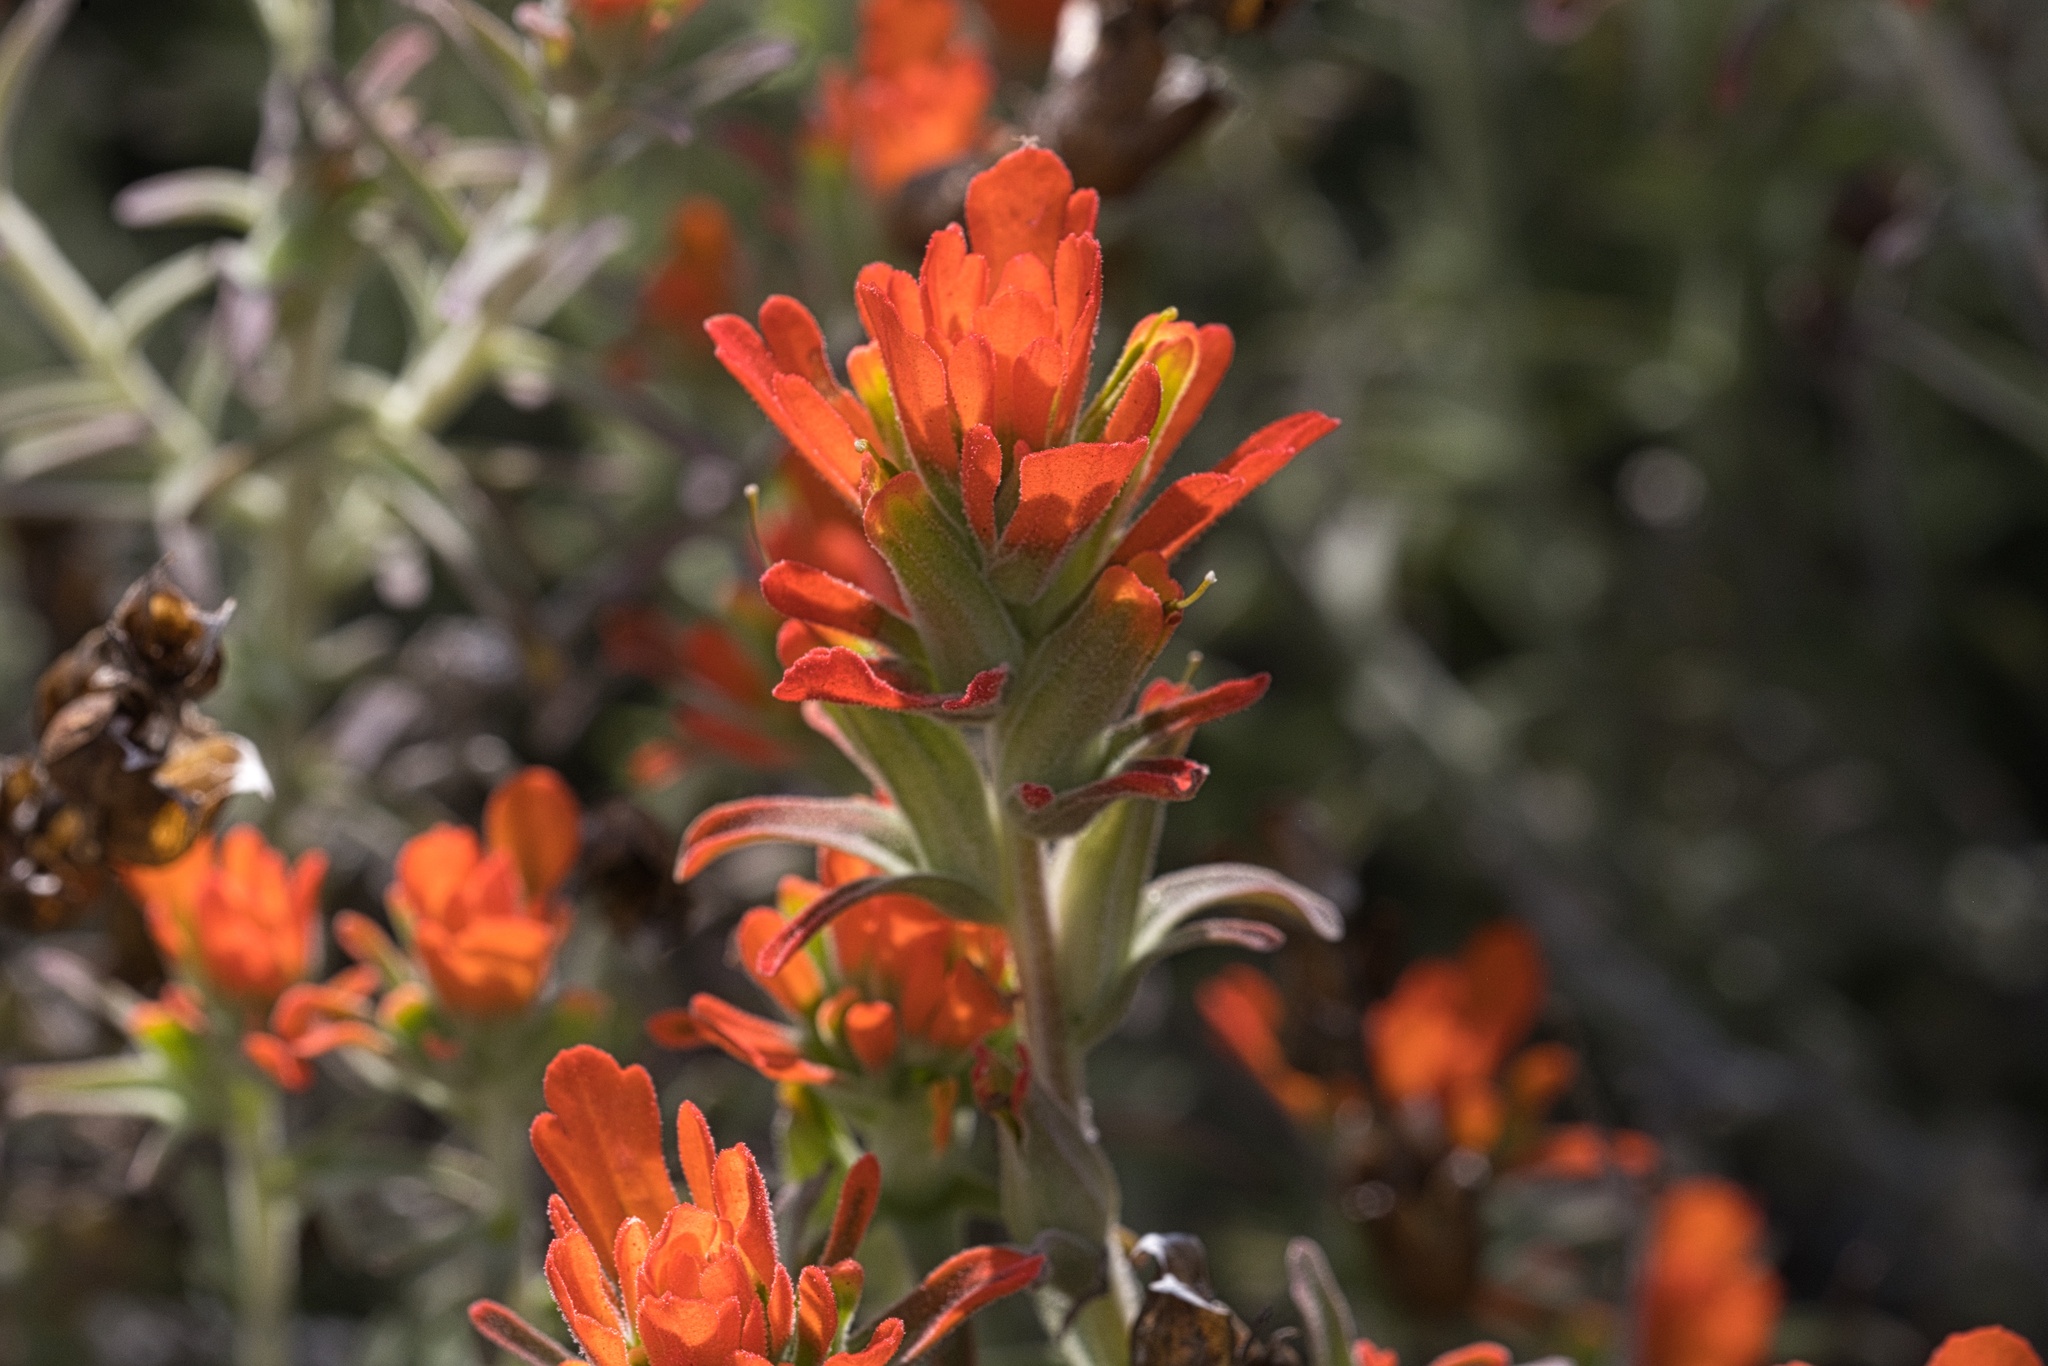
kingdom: Plantae
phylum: Tracheophyta
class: Magnoliopsida
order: Lamiales
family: Orobanchaceae
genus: Castilleja
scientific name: Castilleja foliolosa
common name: Woolly indian paintbrush
